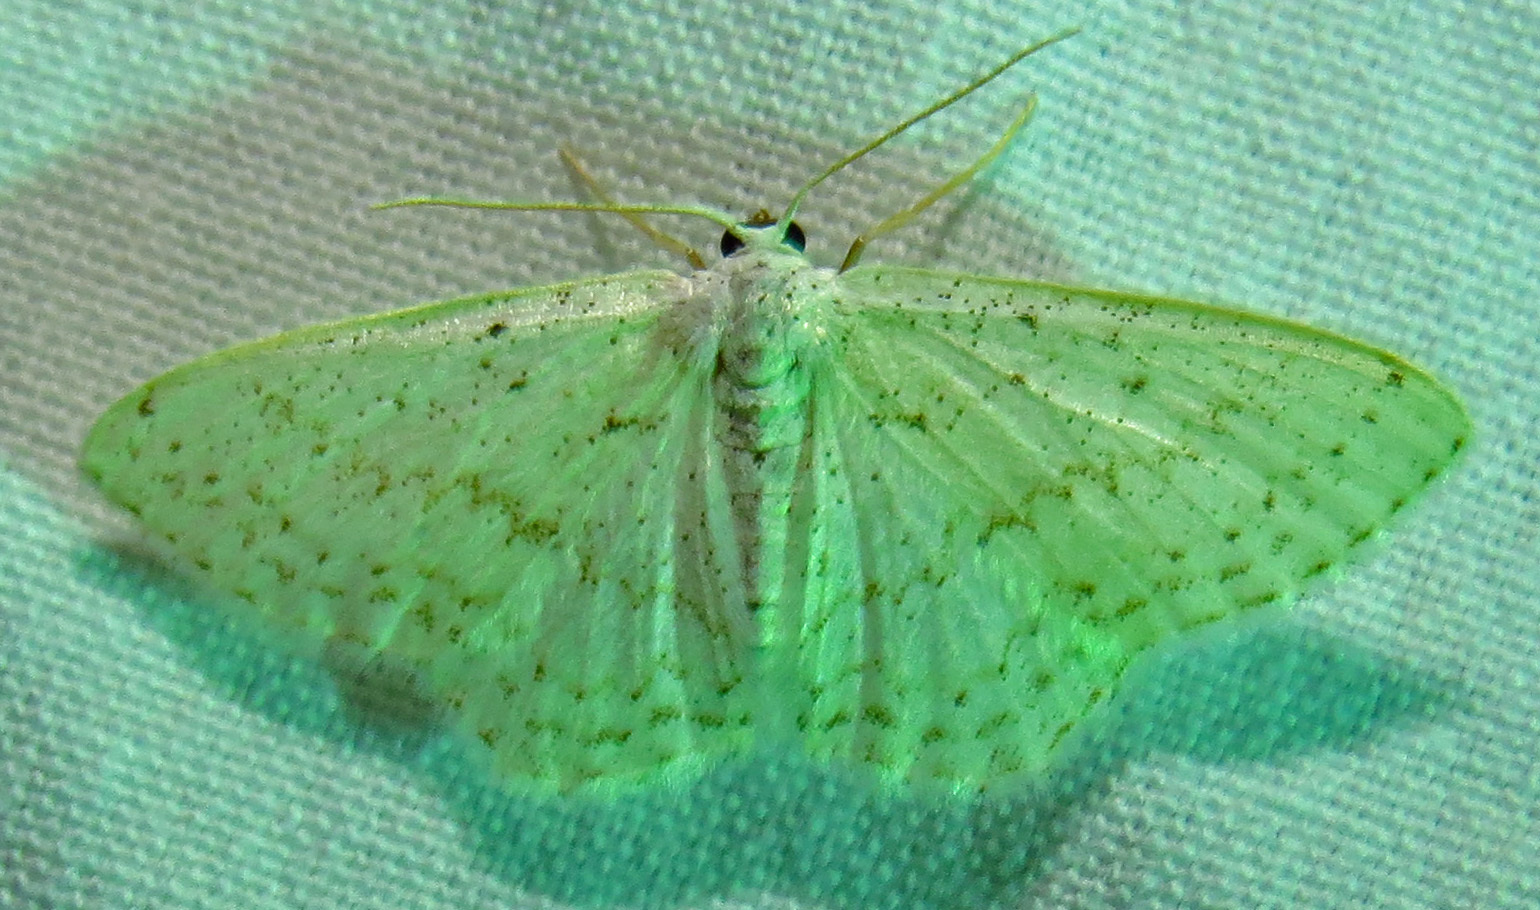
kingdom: Animalia
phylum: Arthropoda
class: Insecta
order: Lepidoptera
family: Geometridae
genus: Idaea
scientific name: Idaea tacturata
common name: Dot-lined wave
